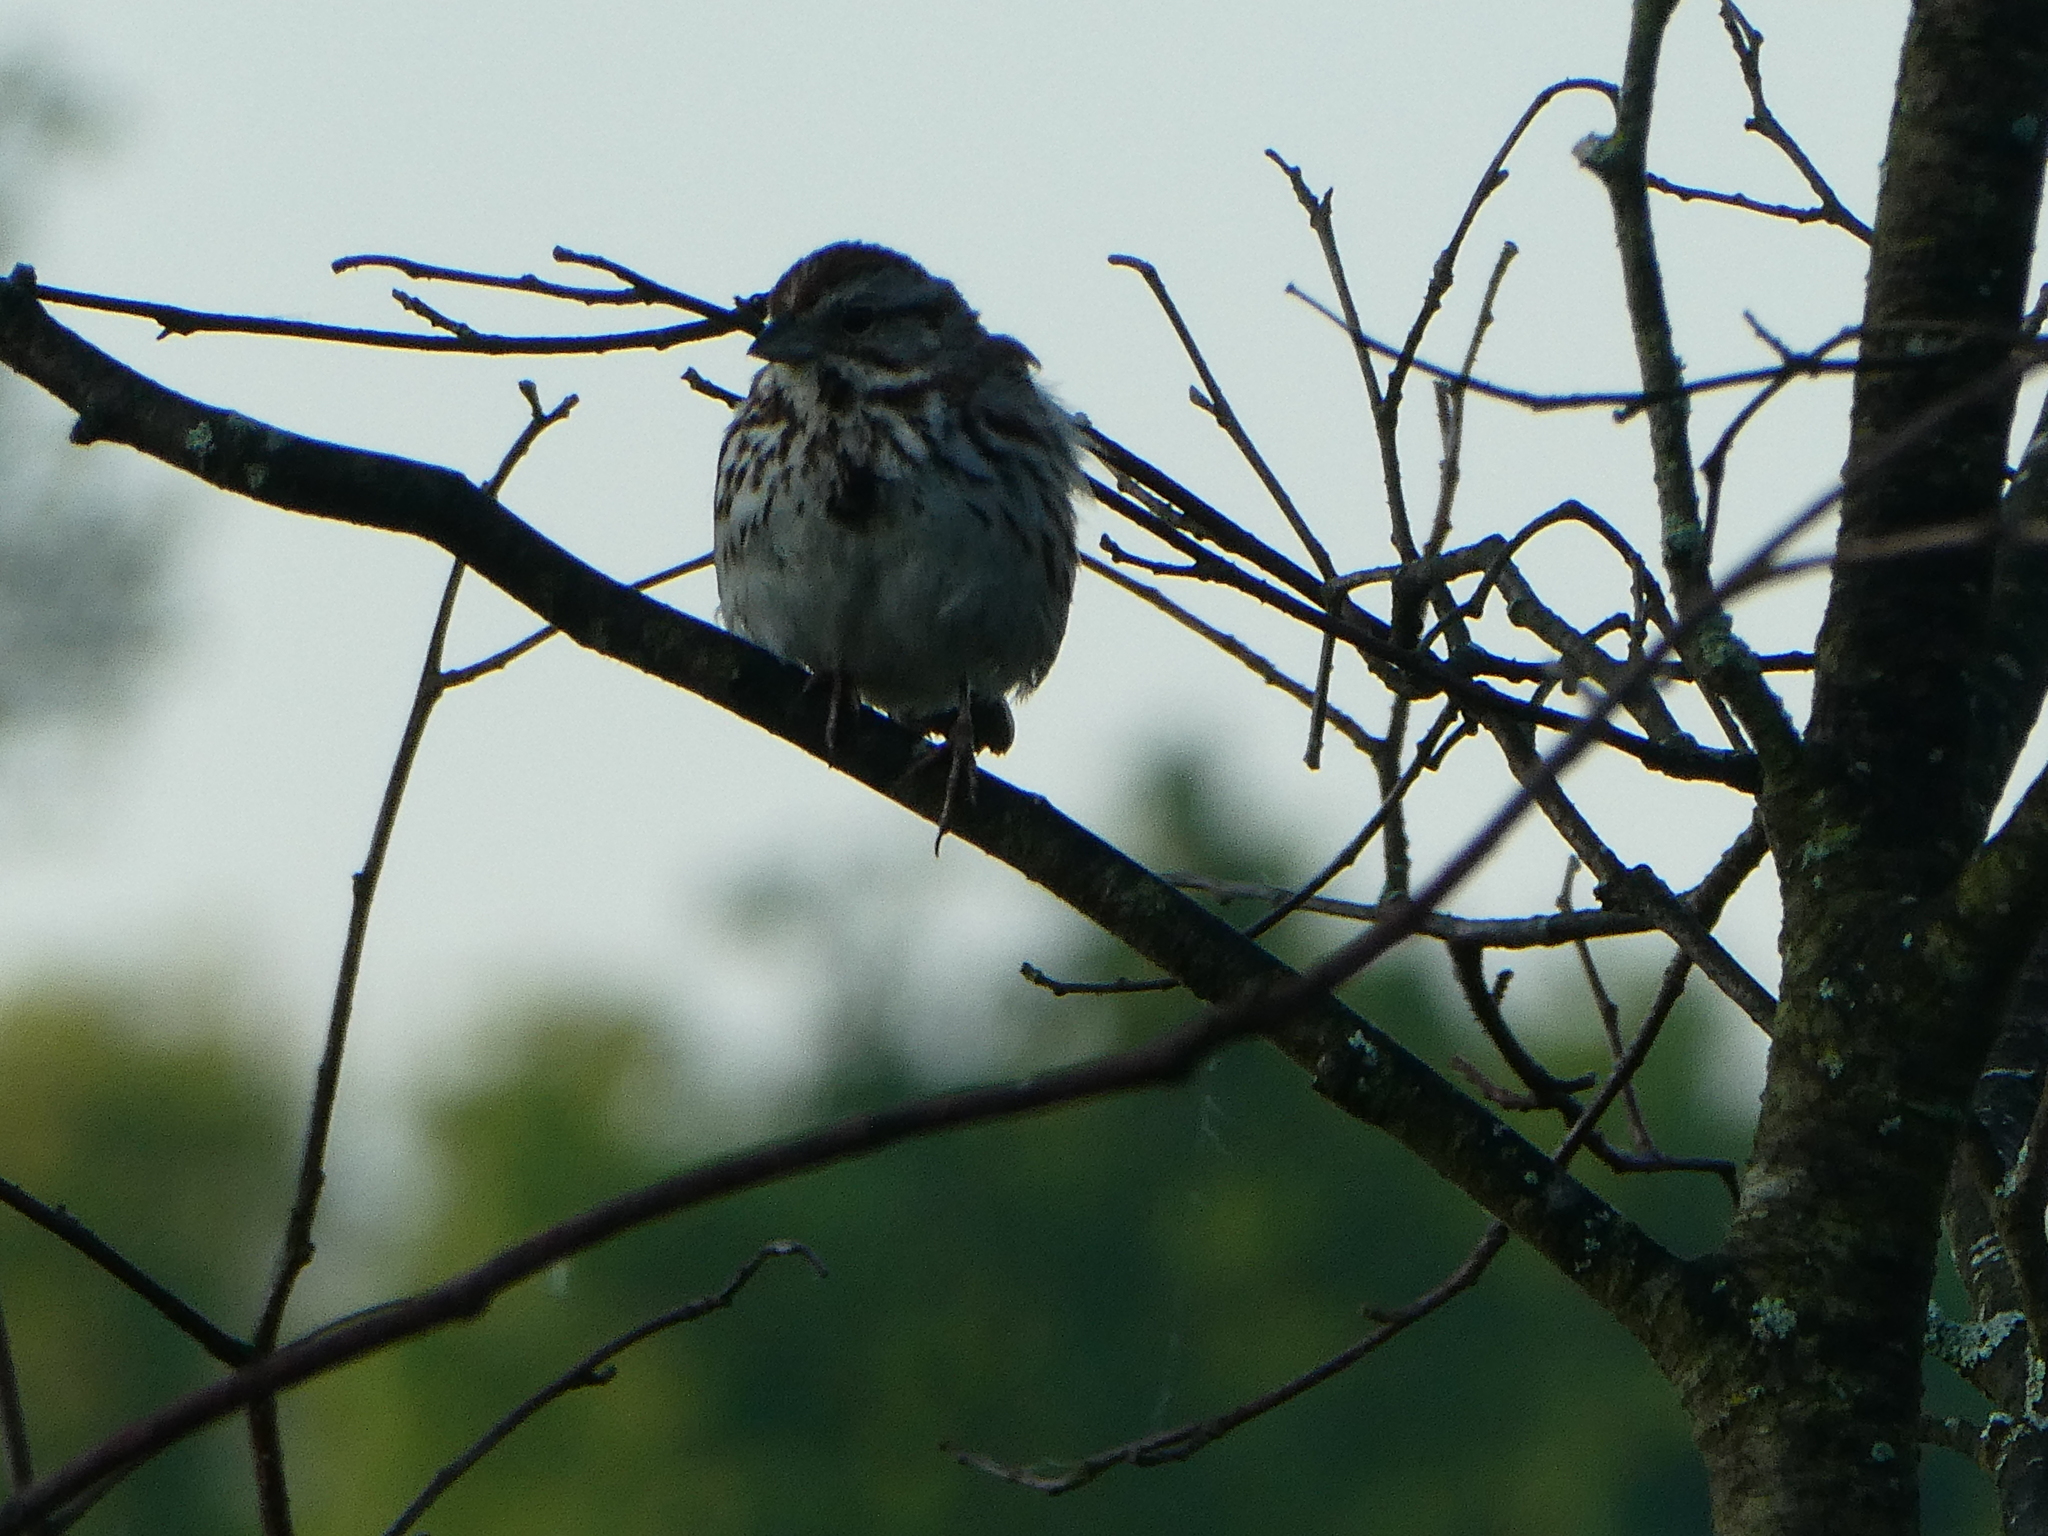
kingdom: Animalia
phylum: Chordata
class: Aves
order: Passeriformes
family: Passerellidae
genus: Melospiza
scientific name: Melospiza melodia
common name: Song sparrow
